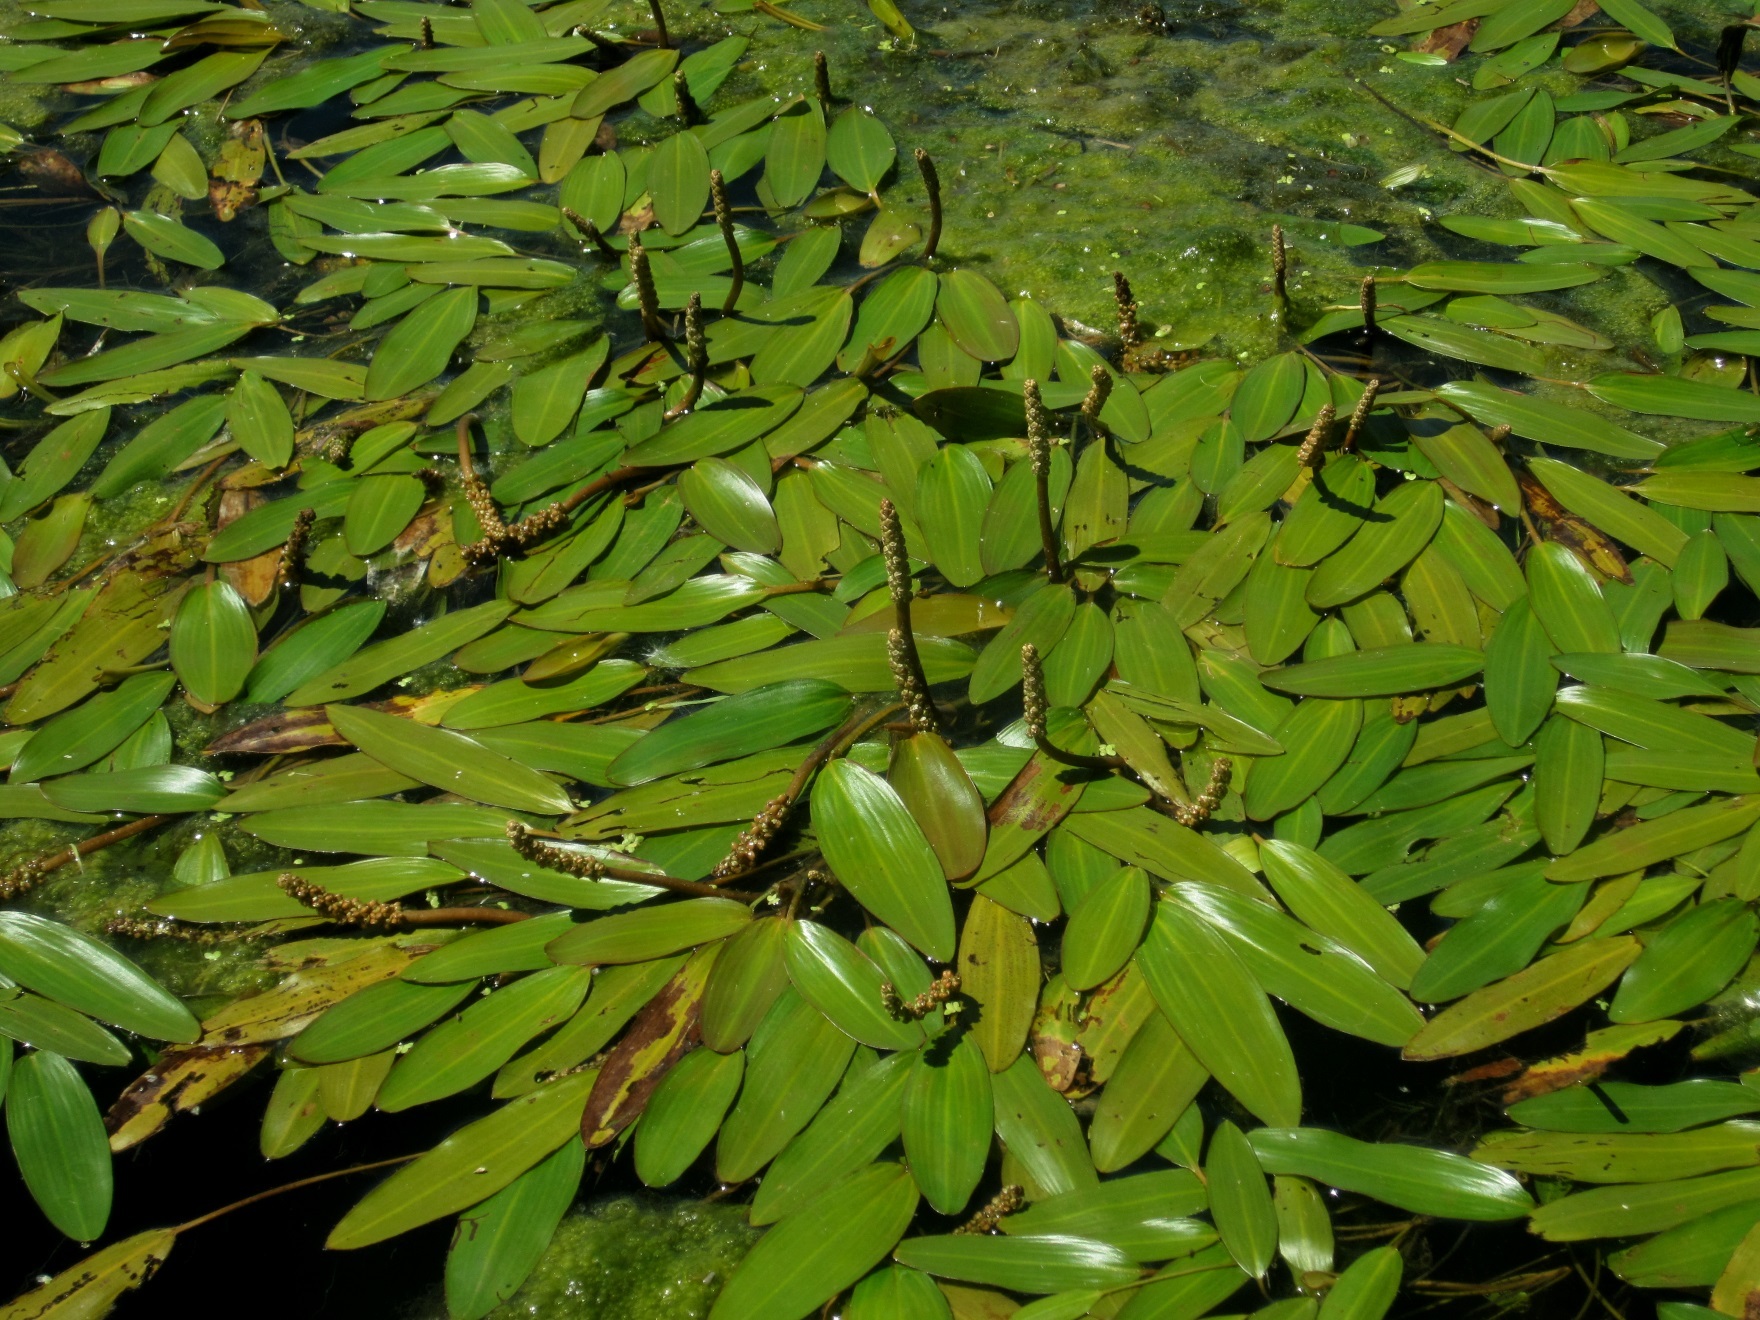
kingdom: Plantae
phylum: Tracheophyta
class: Liliopsida
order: Alismatales
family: Potamogetonaceae
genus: Potamogeton
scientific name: Potamogeton nodosus
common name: Loddon pondweed
